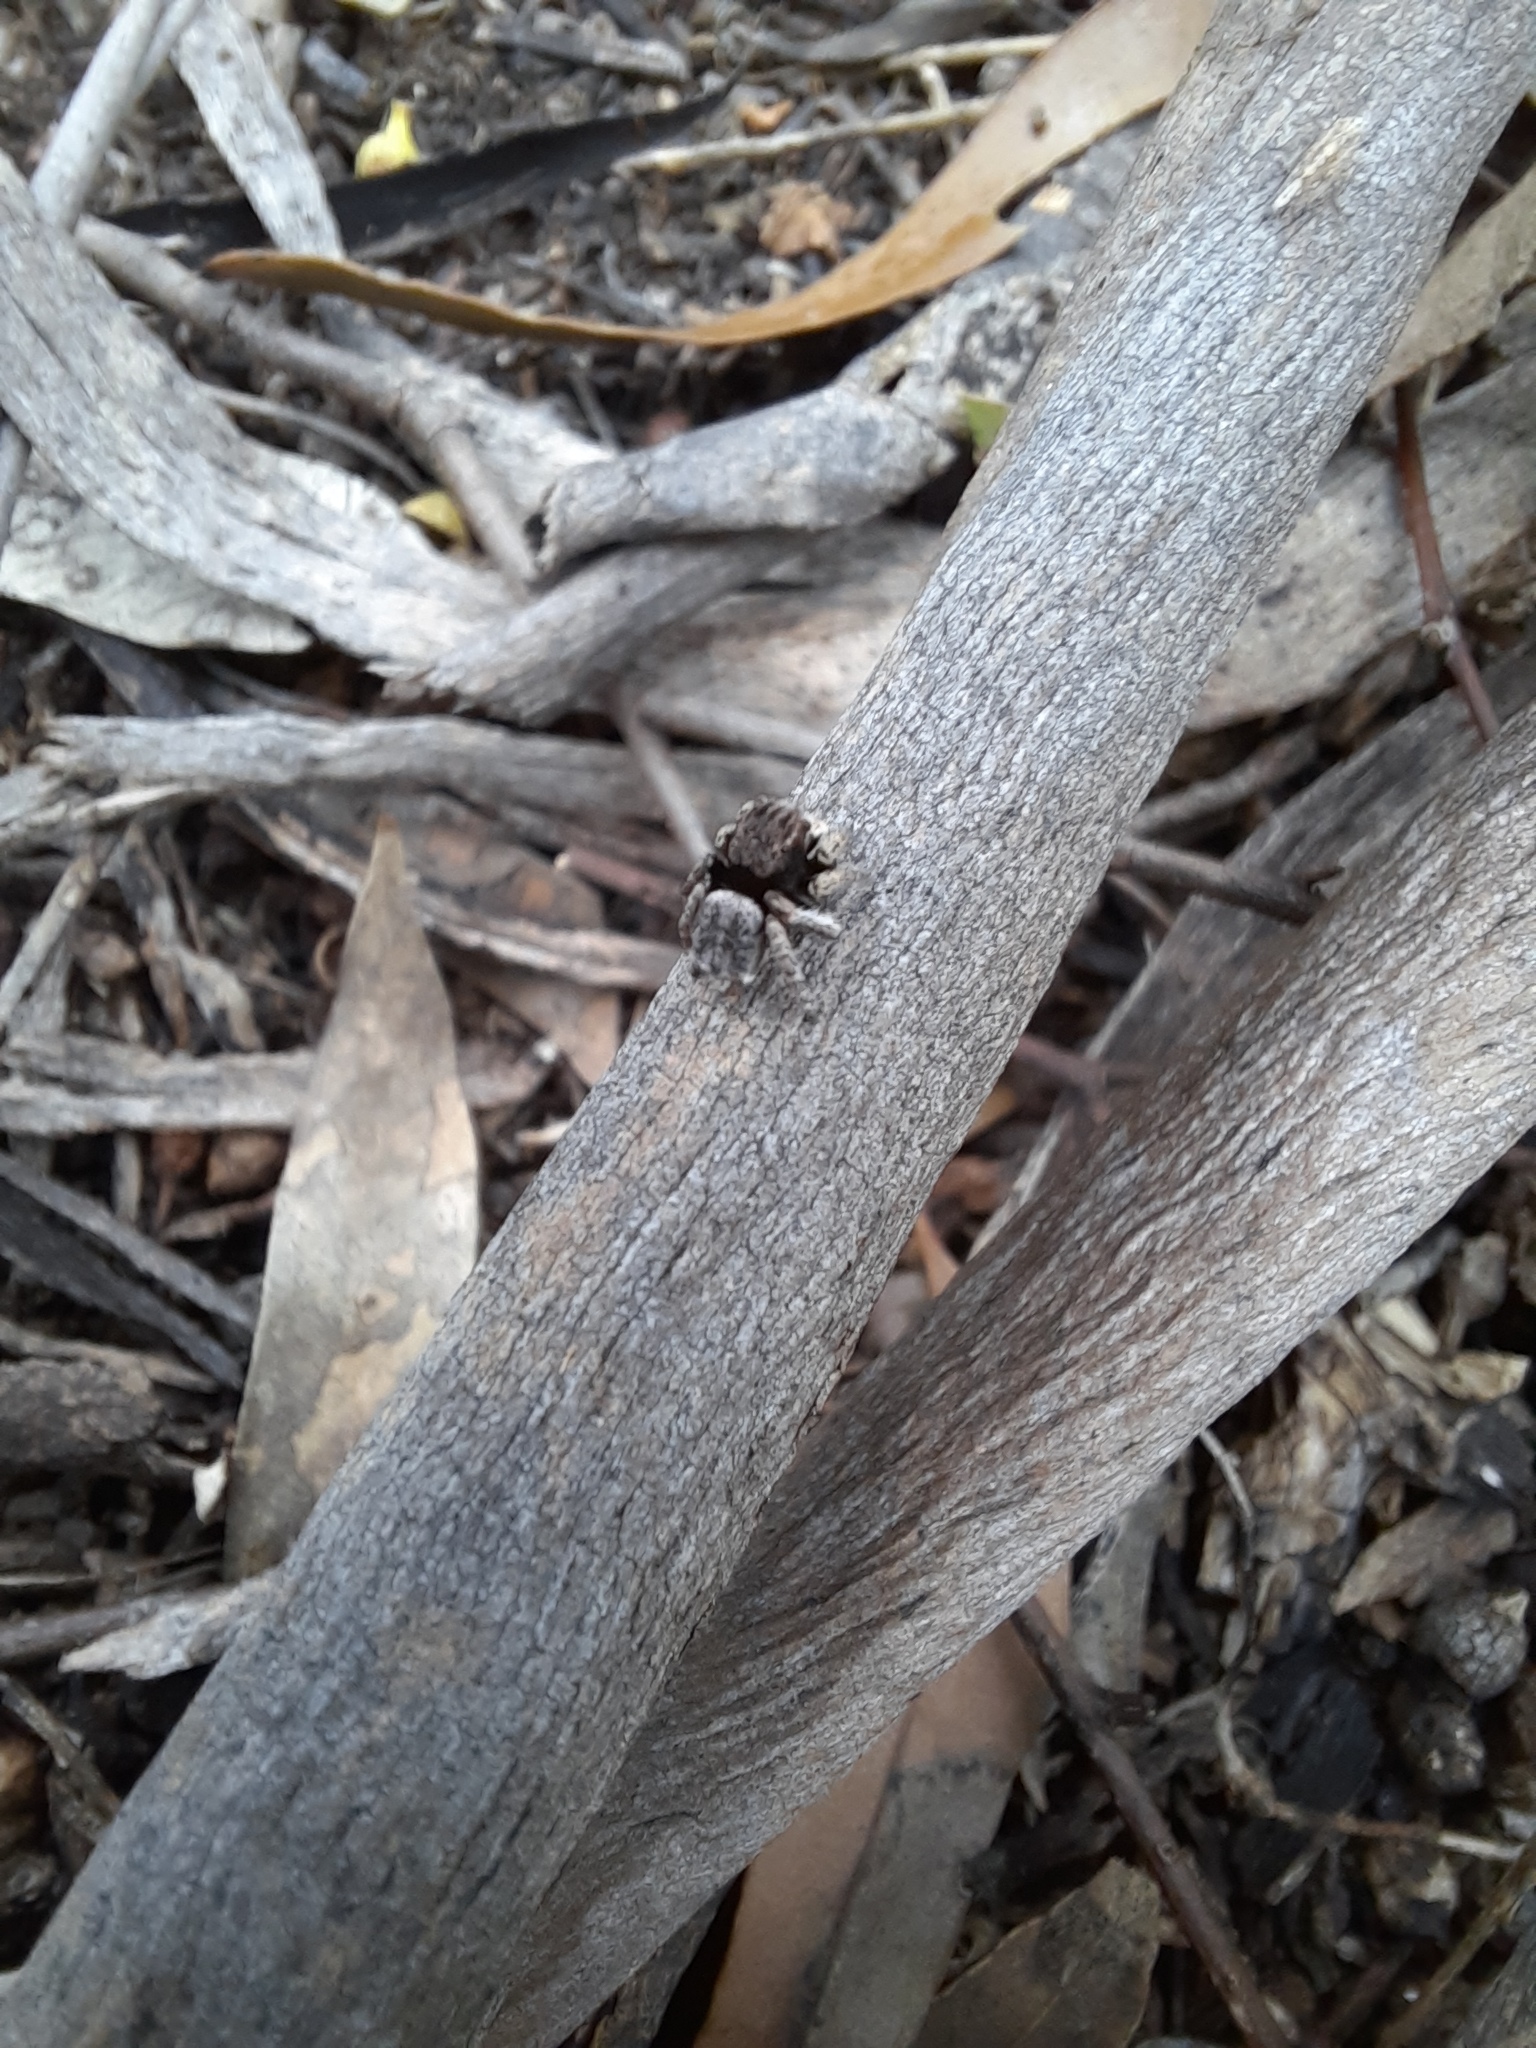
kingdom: Animalia
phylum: Arthropoda
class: Arachnida
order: Araneae
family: Salticidae
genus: Maratus
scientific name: Maratus vespertilio
